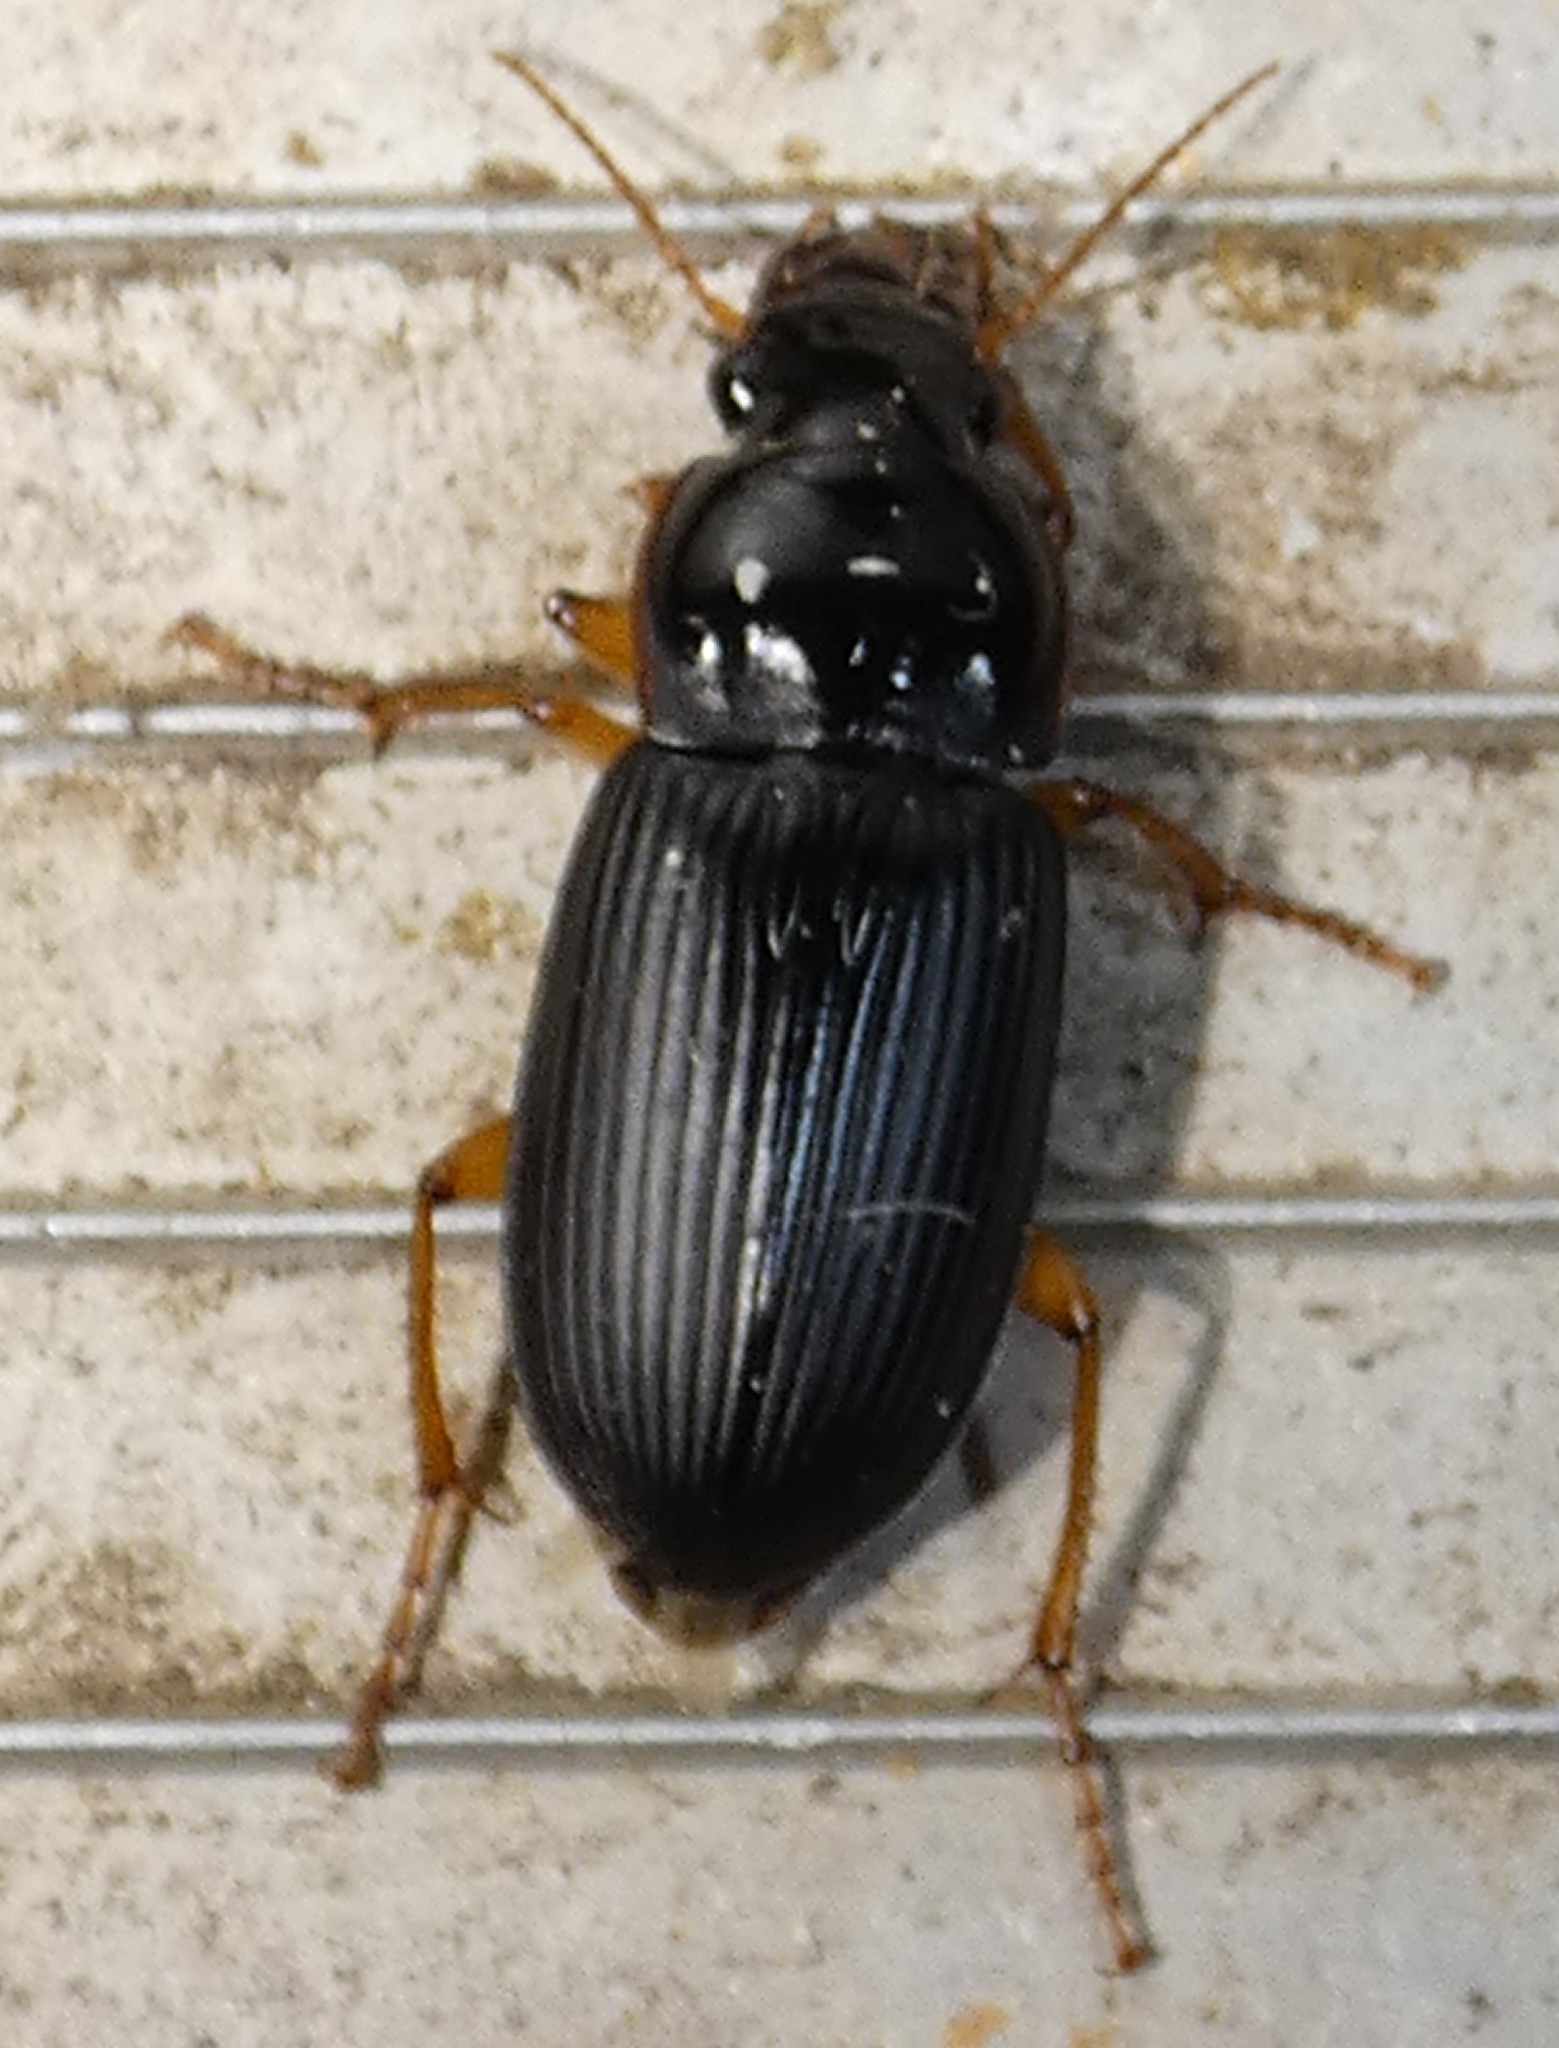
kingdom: Animalia
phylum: Arthropoda
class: Insecta
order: Coleoptera
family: Carabidae
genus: Harpalus
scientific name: Harpalus pensylvanicus
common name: Pennsylvania dingy ground beetle
